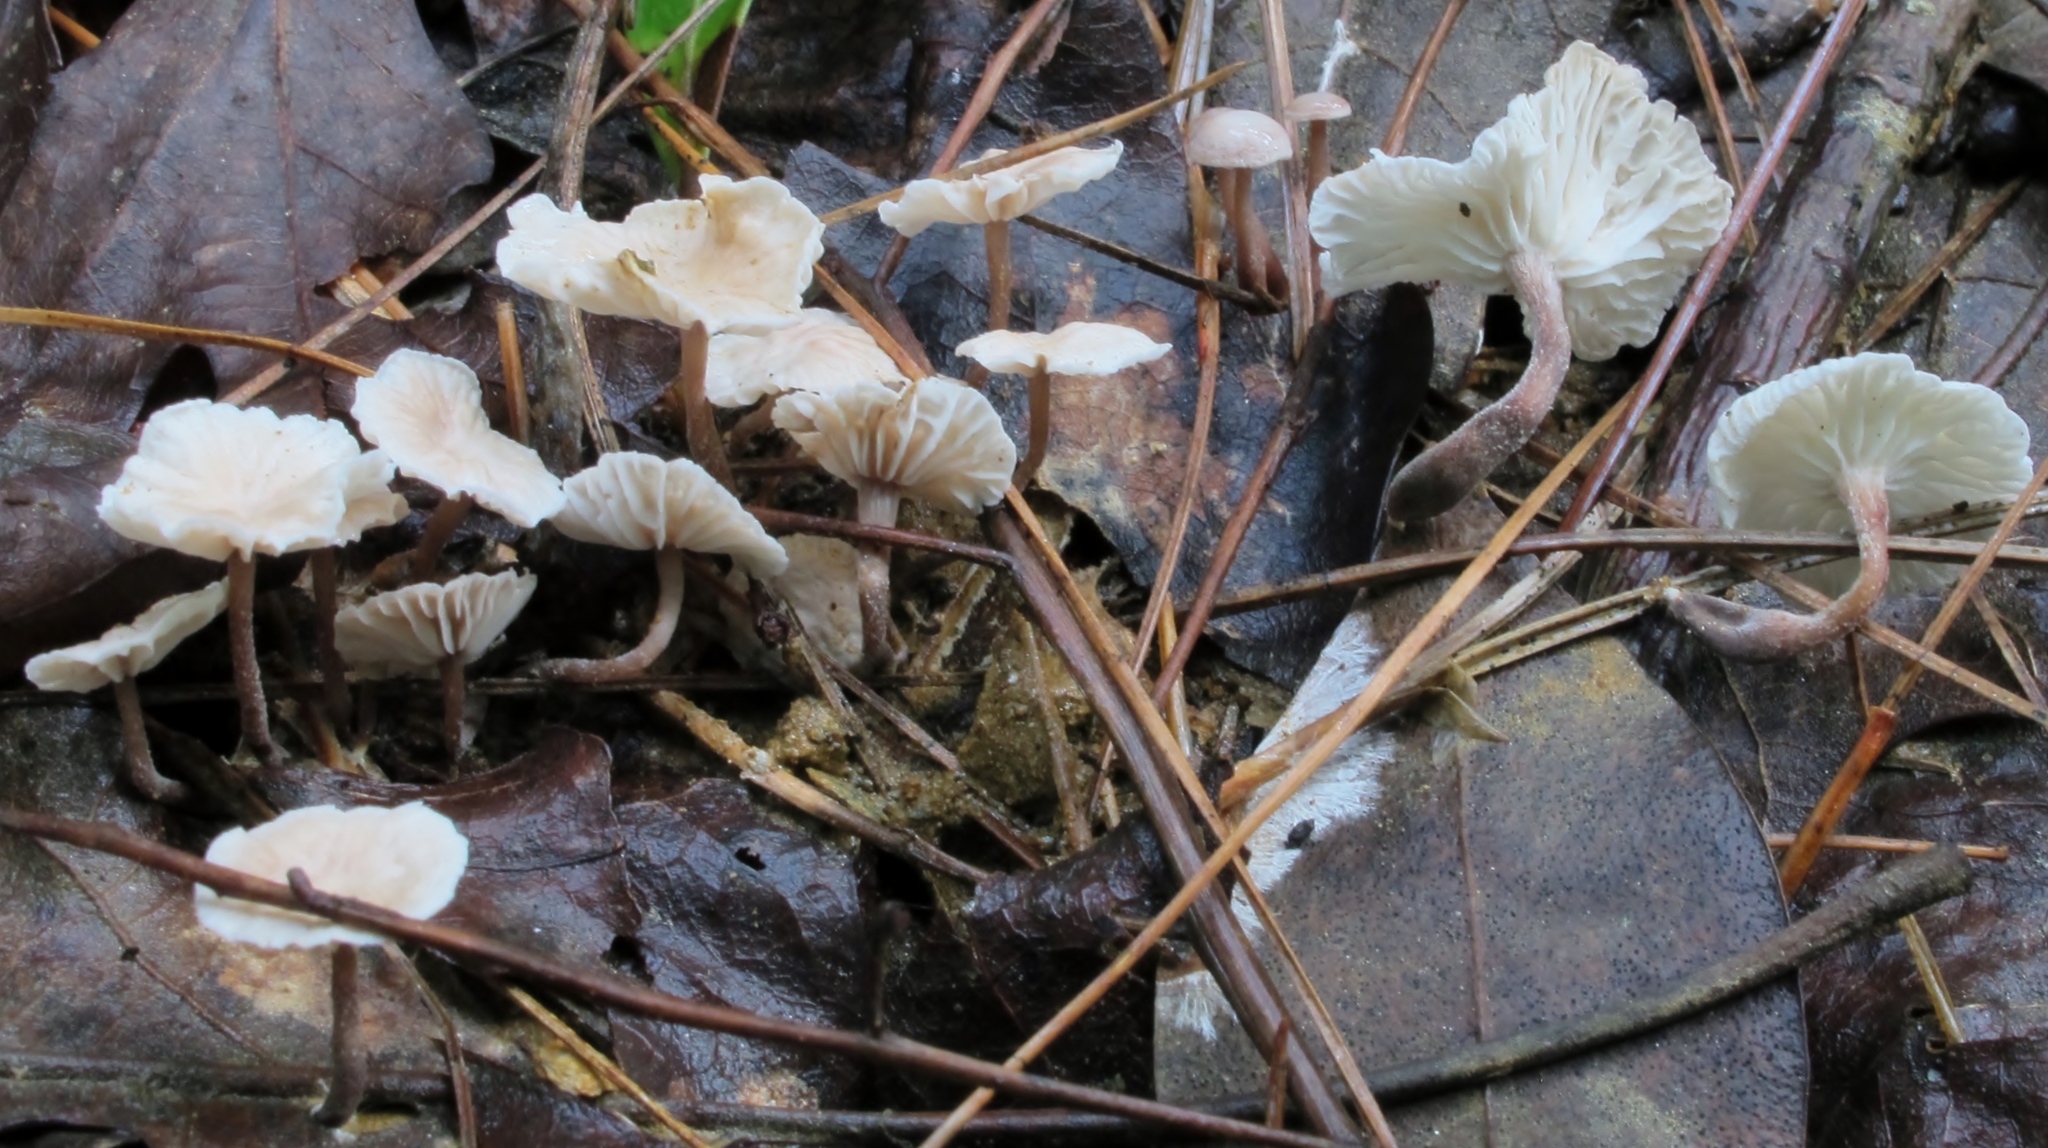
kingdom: Fungi
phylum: Basidiomycota
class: Agaricomycetes
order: Agaricales
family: Omphalotaceae
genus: Marasmiellus
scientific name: Marasmiellus praeacutus
